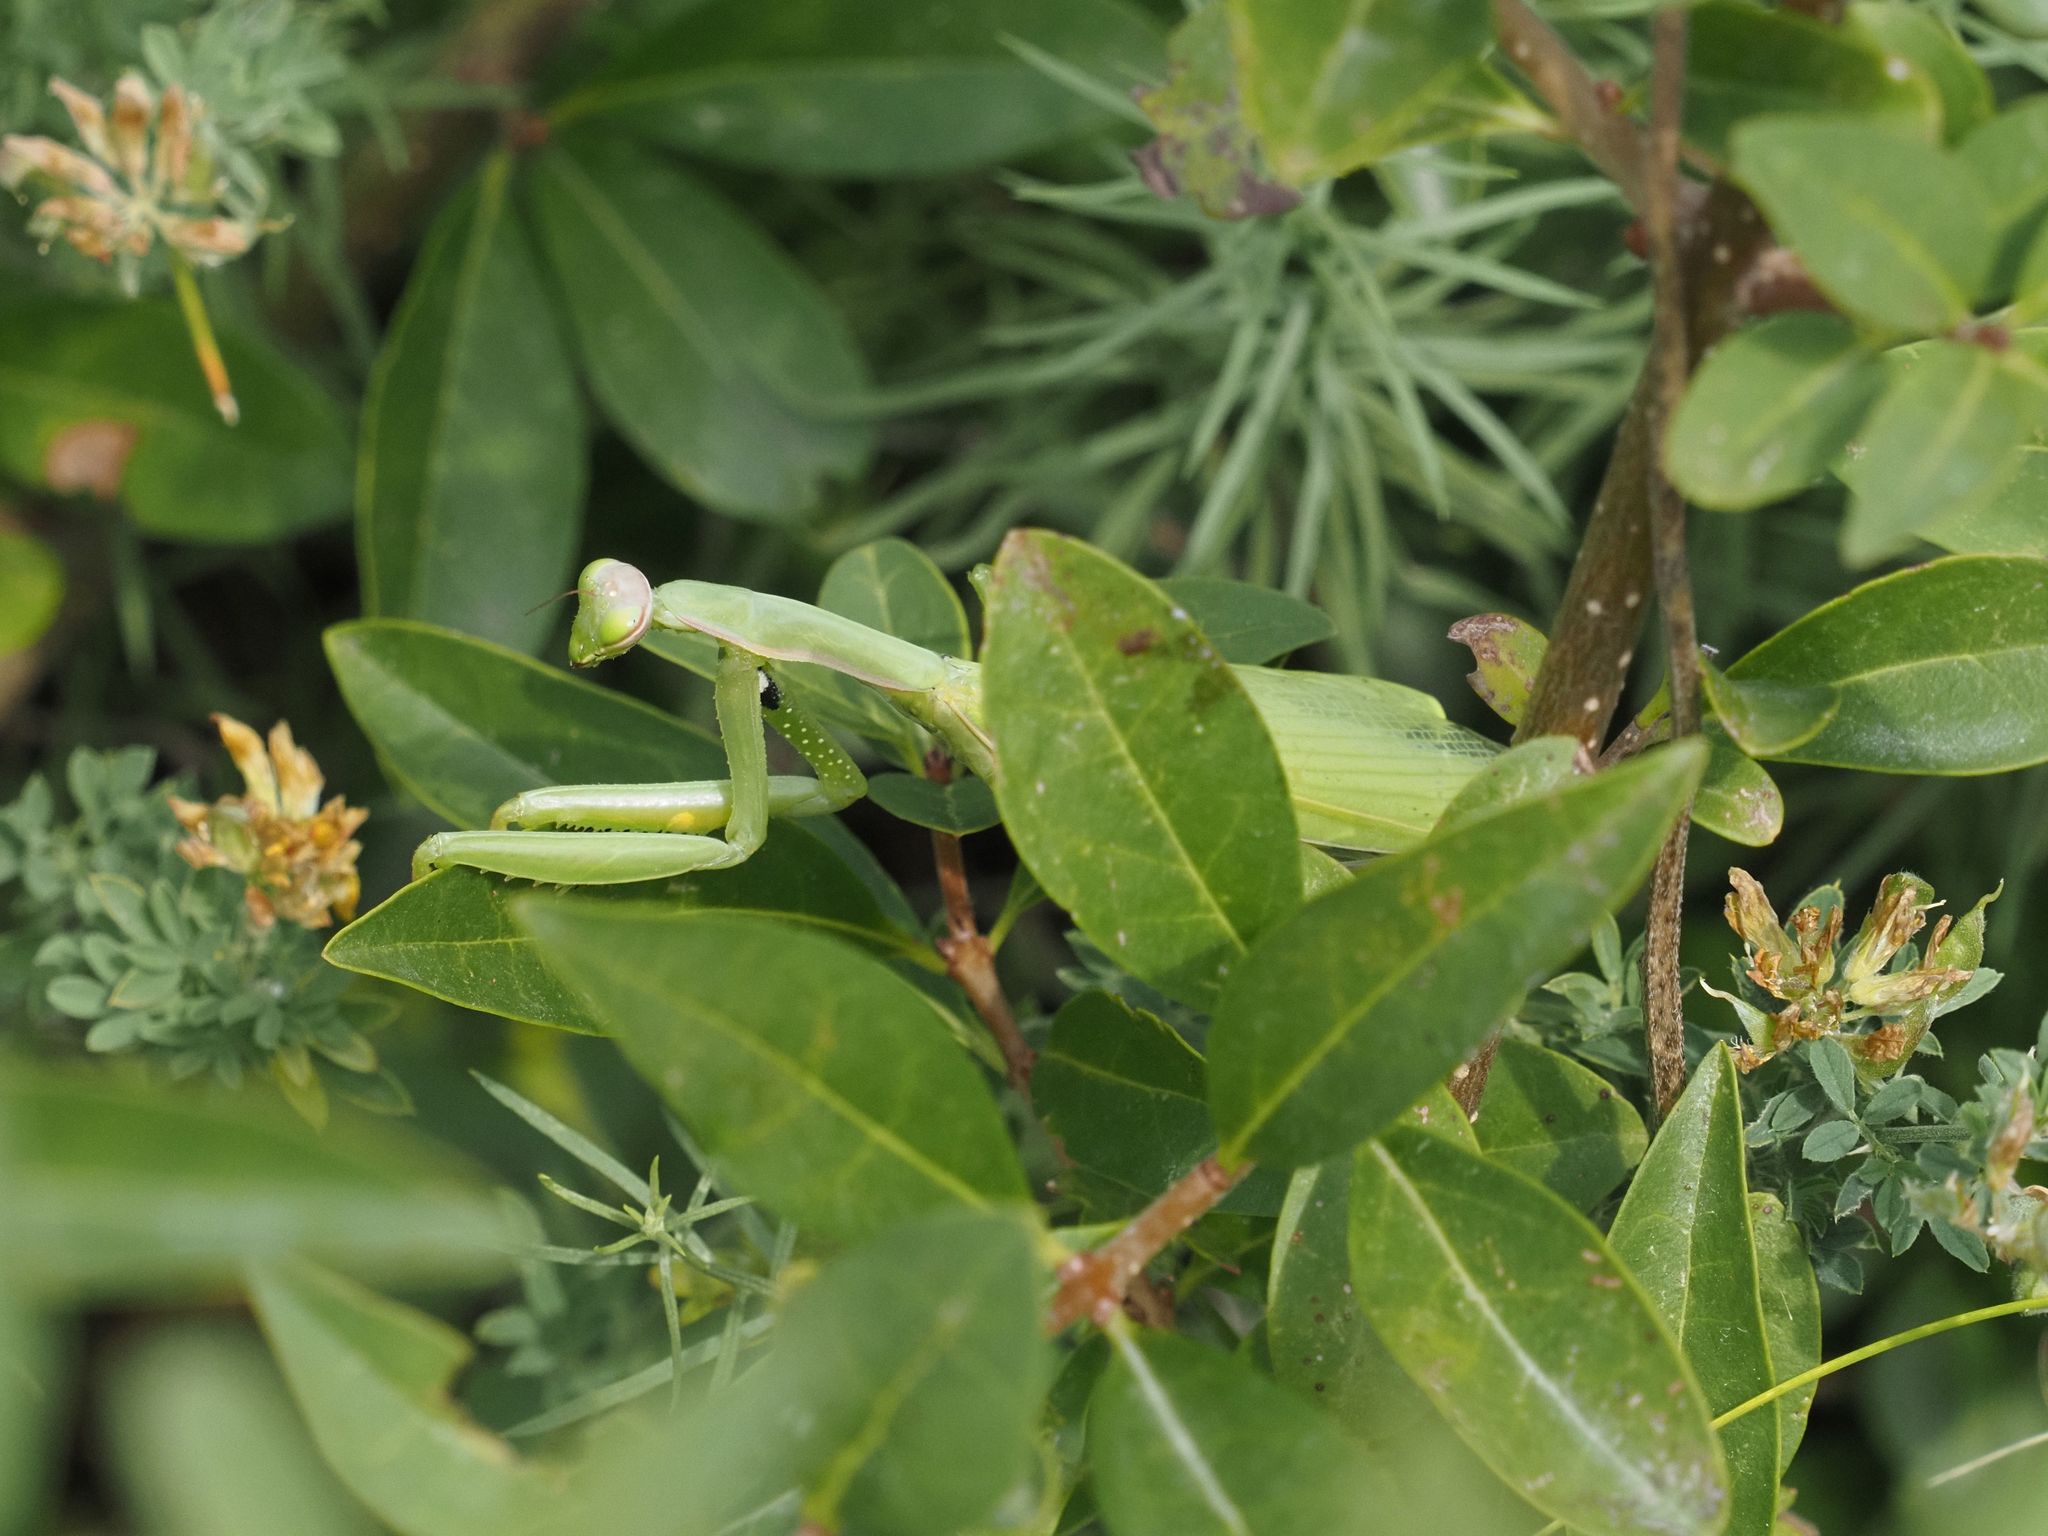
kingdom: Animalia
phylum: Arthropoda
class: Insecta
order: Mantodea
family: Mantidae
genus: Mantis
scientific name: Mantis religiosa
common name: Praying mantis
